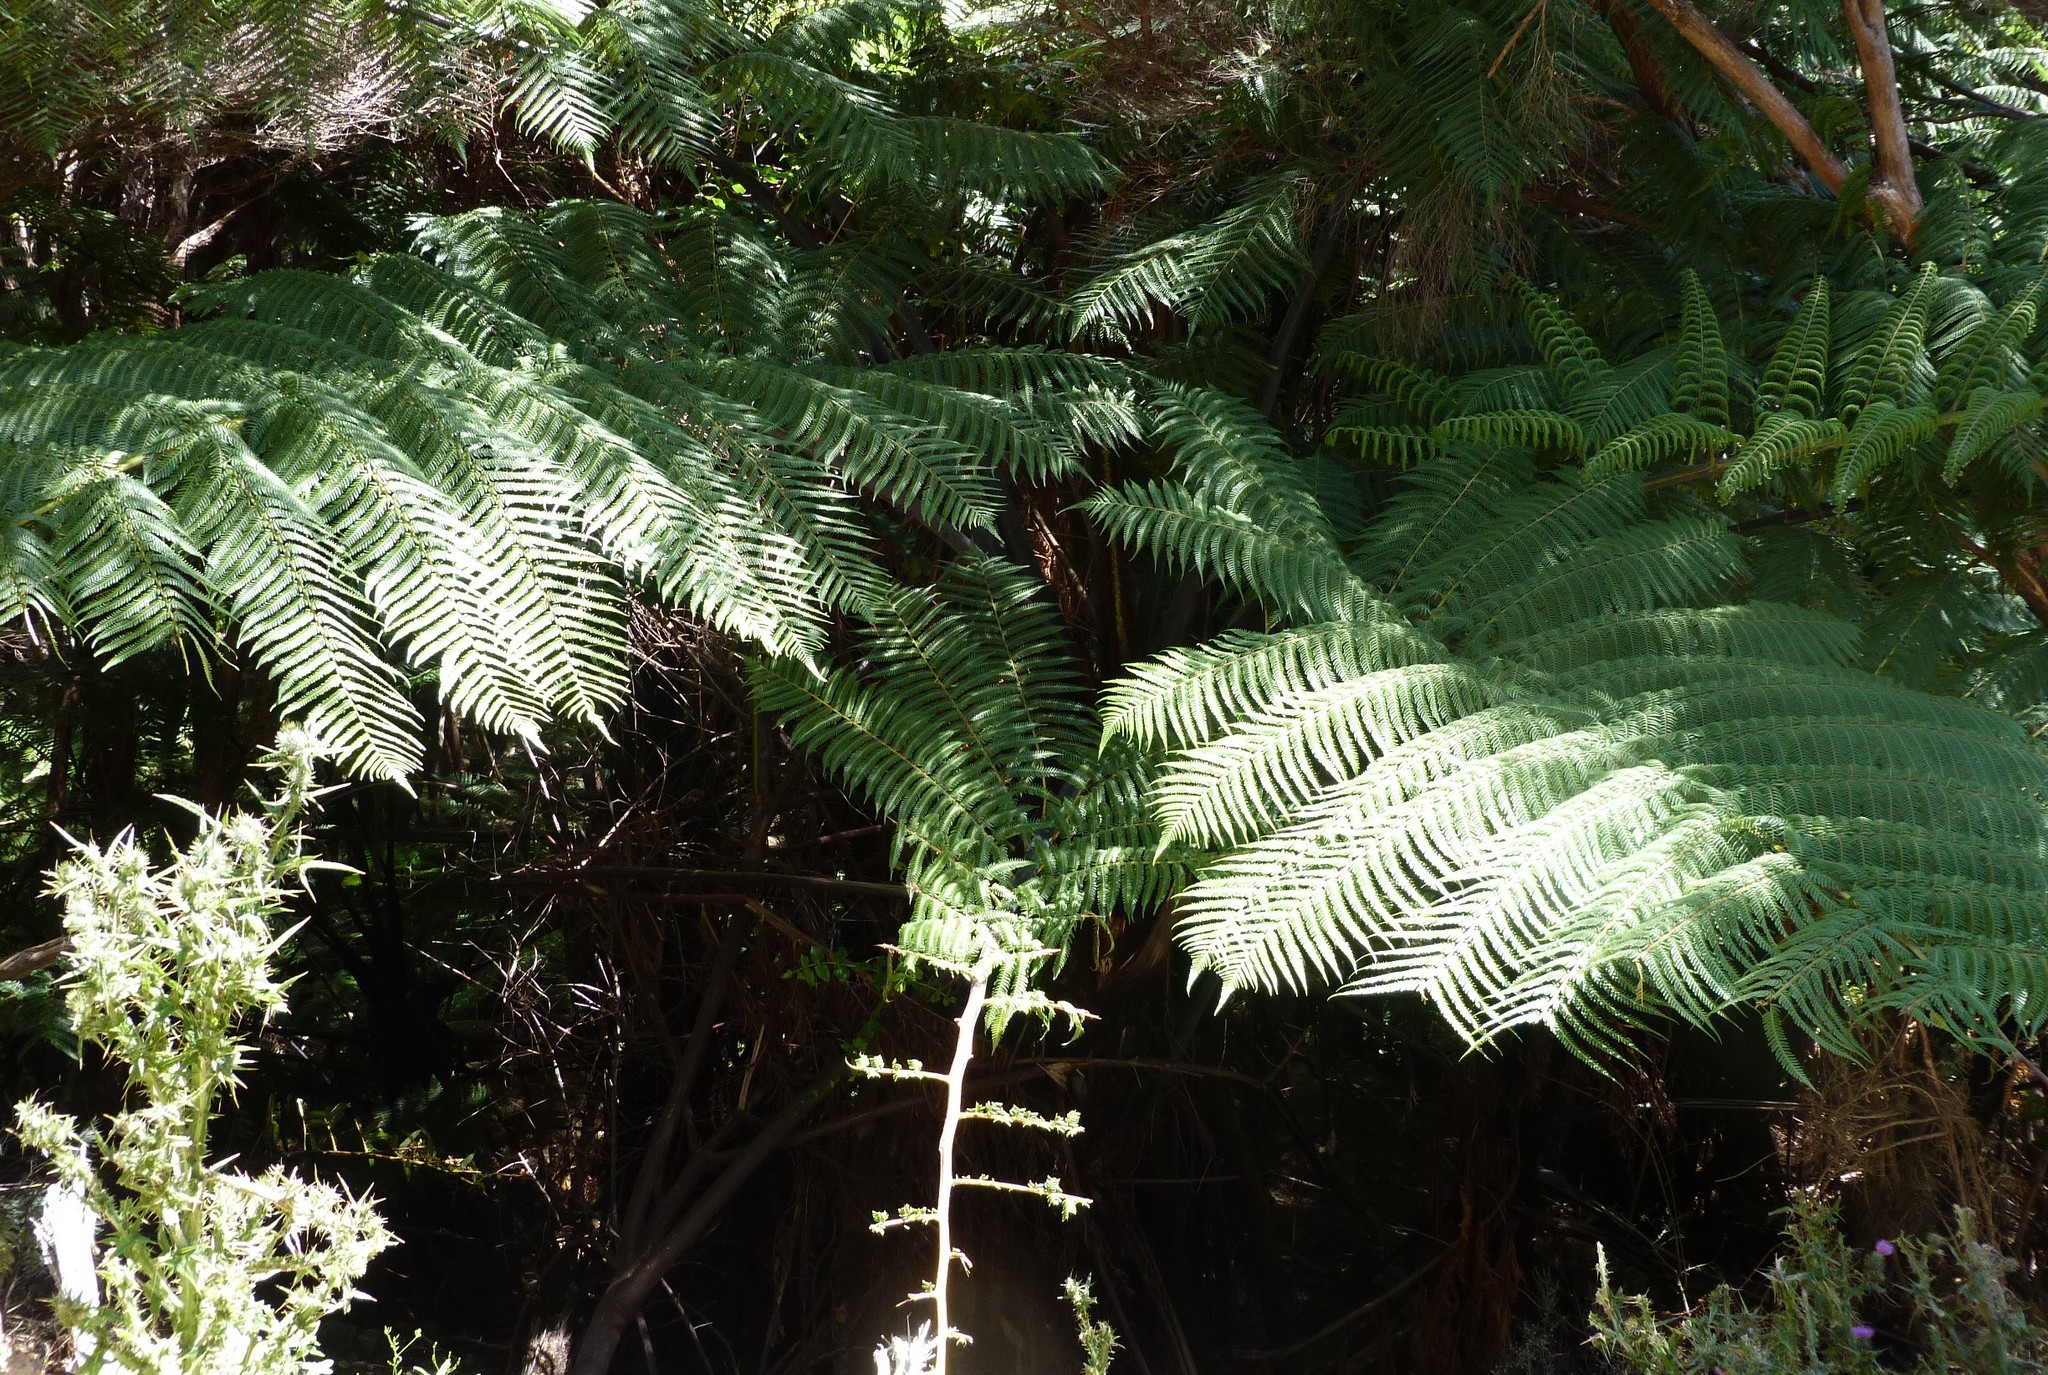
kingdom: Plantae
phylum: Tracheophyta
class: Polypodiopsida
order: Cyatheales
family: Cyatheaceae
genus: Alsophila
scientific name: Alsophila dealbata
